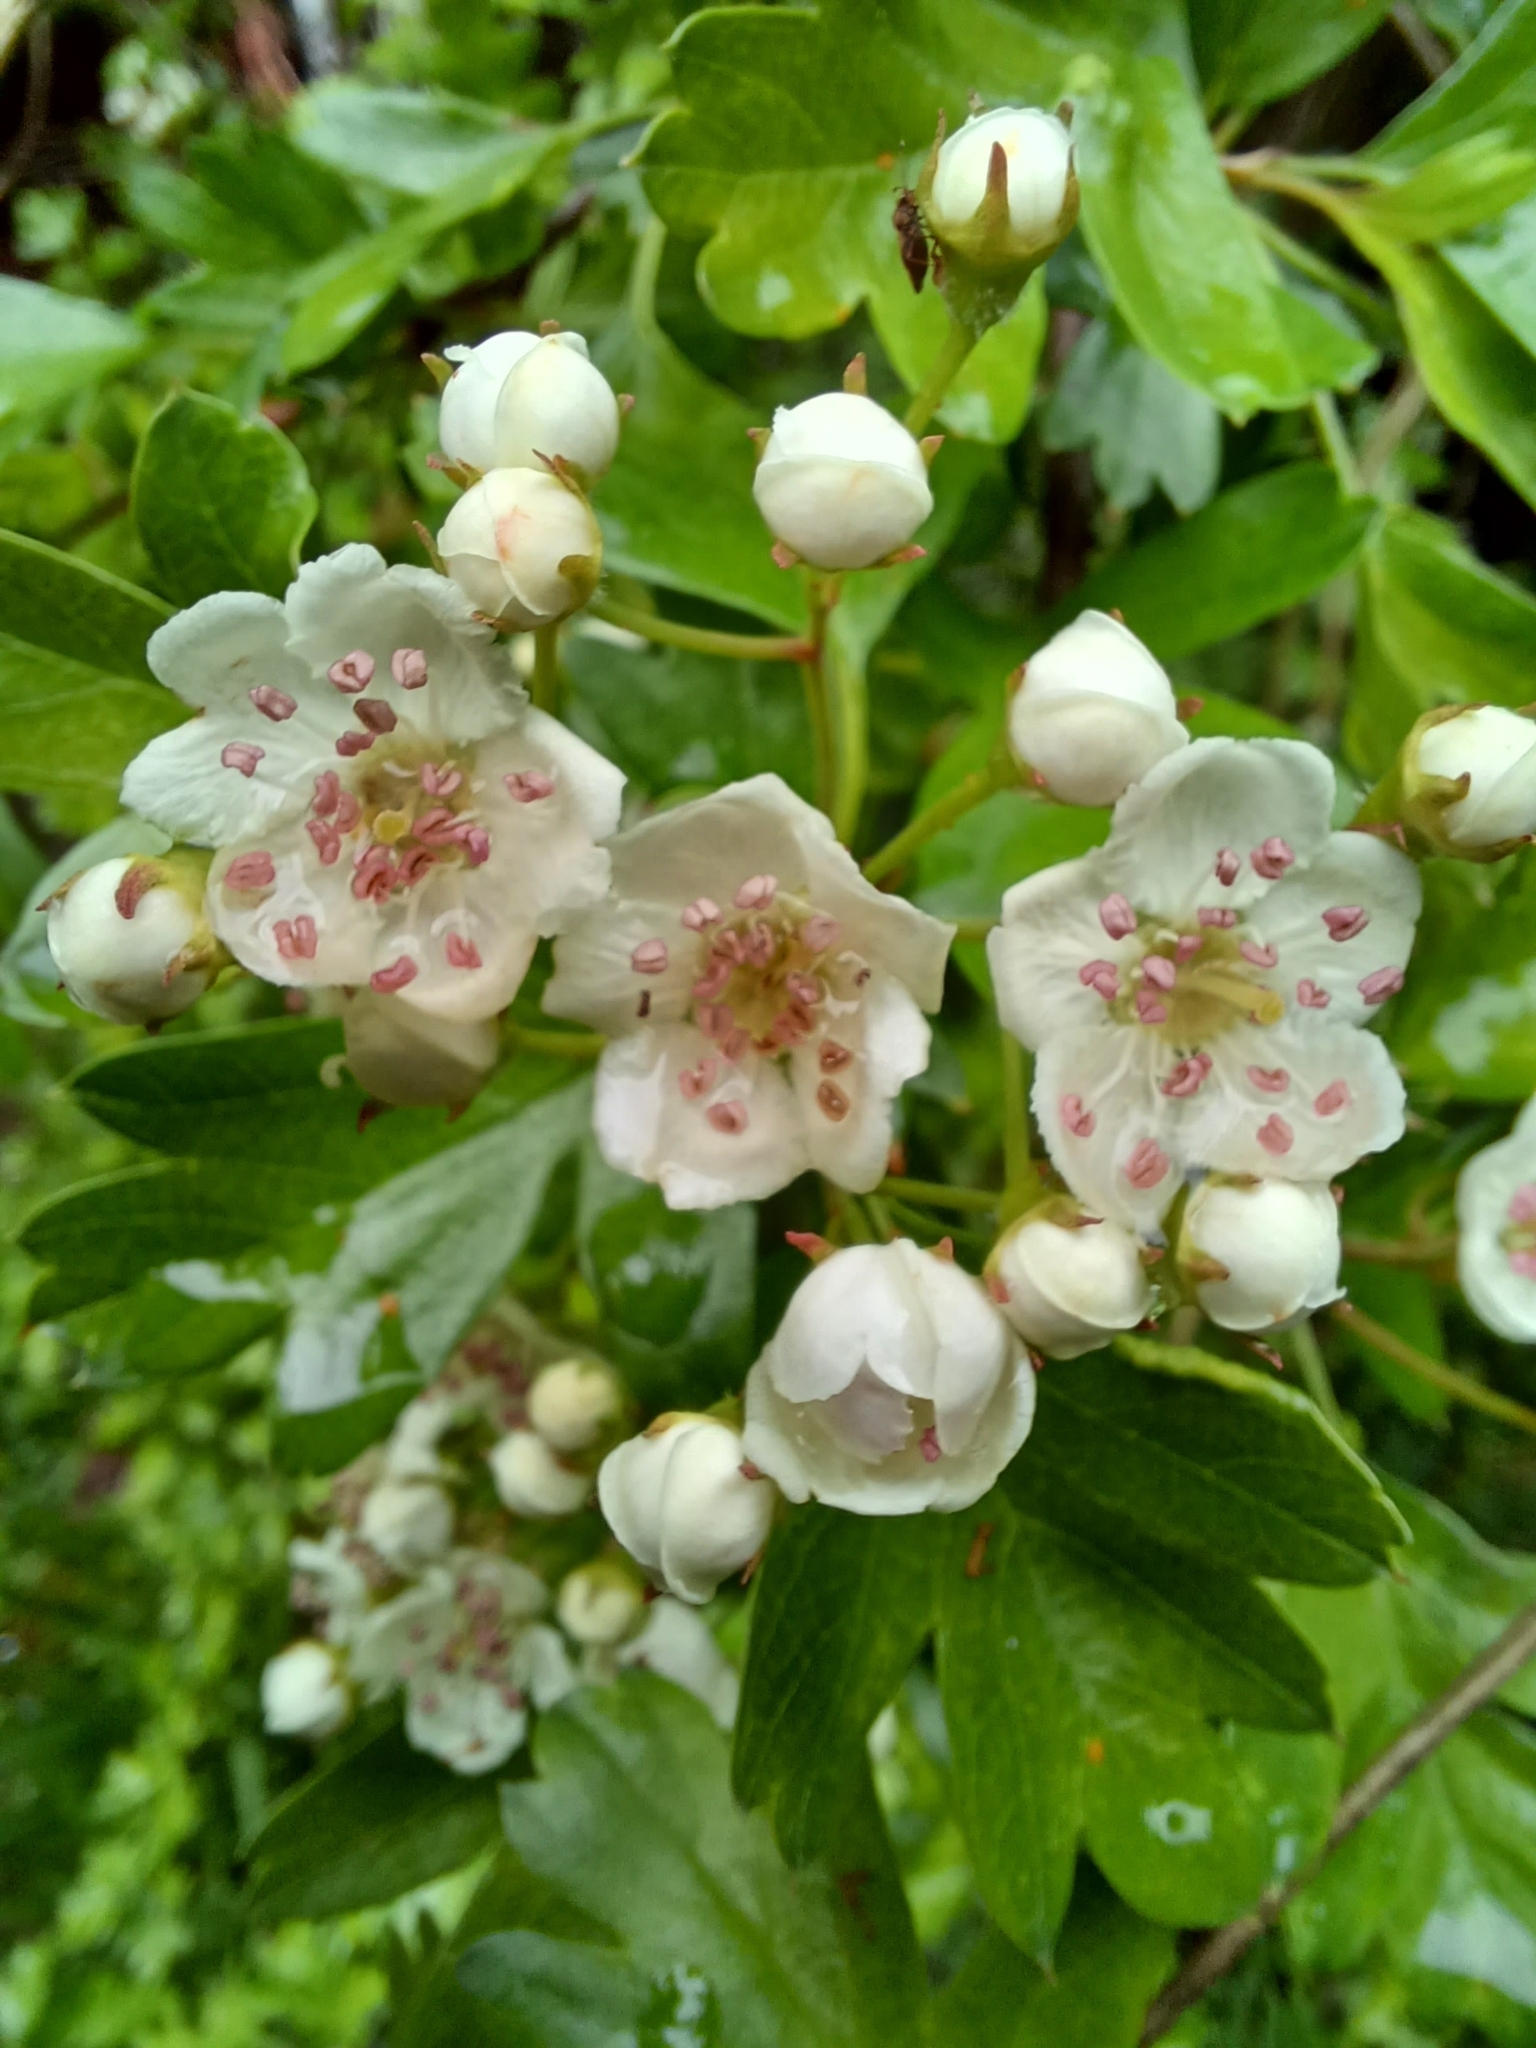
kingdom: Plantae
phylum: Tracheophyta
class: Magnoliopsida
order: Rosales
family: Rosaceae
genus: Crataegus
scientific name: Crataegus monogyna
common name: Hawthorn
